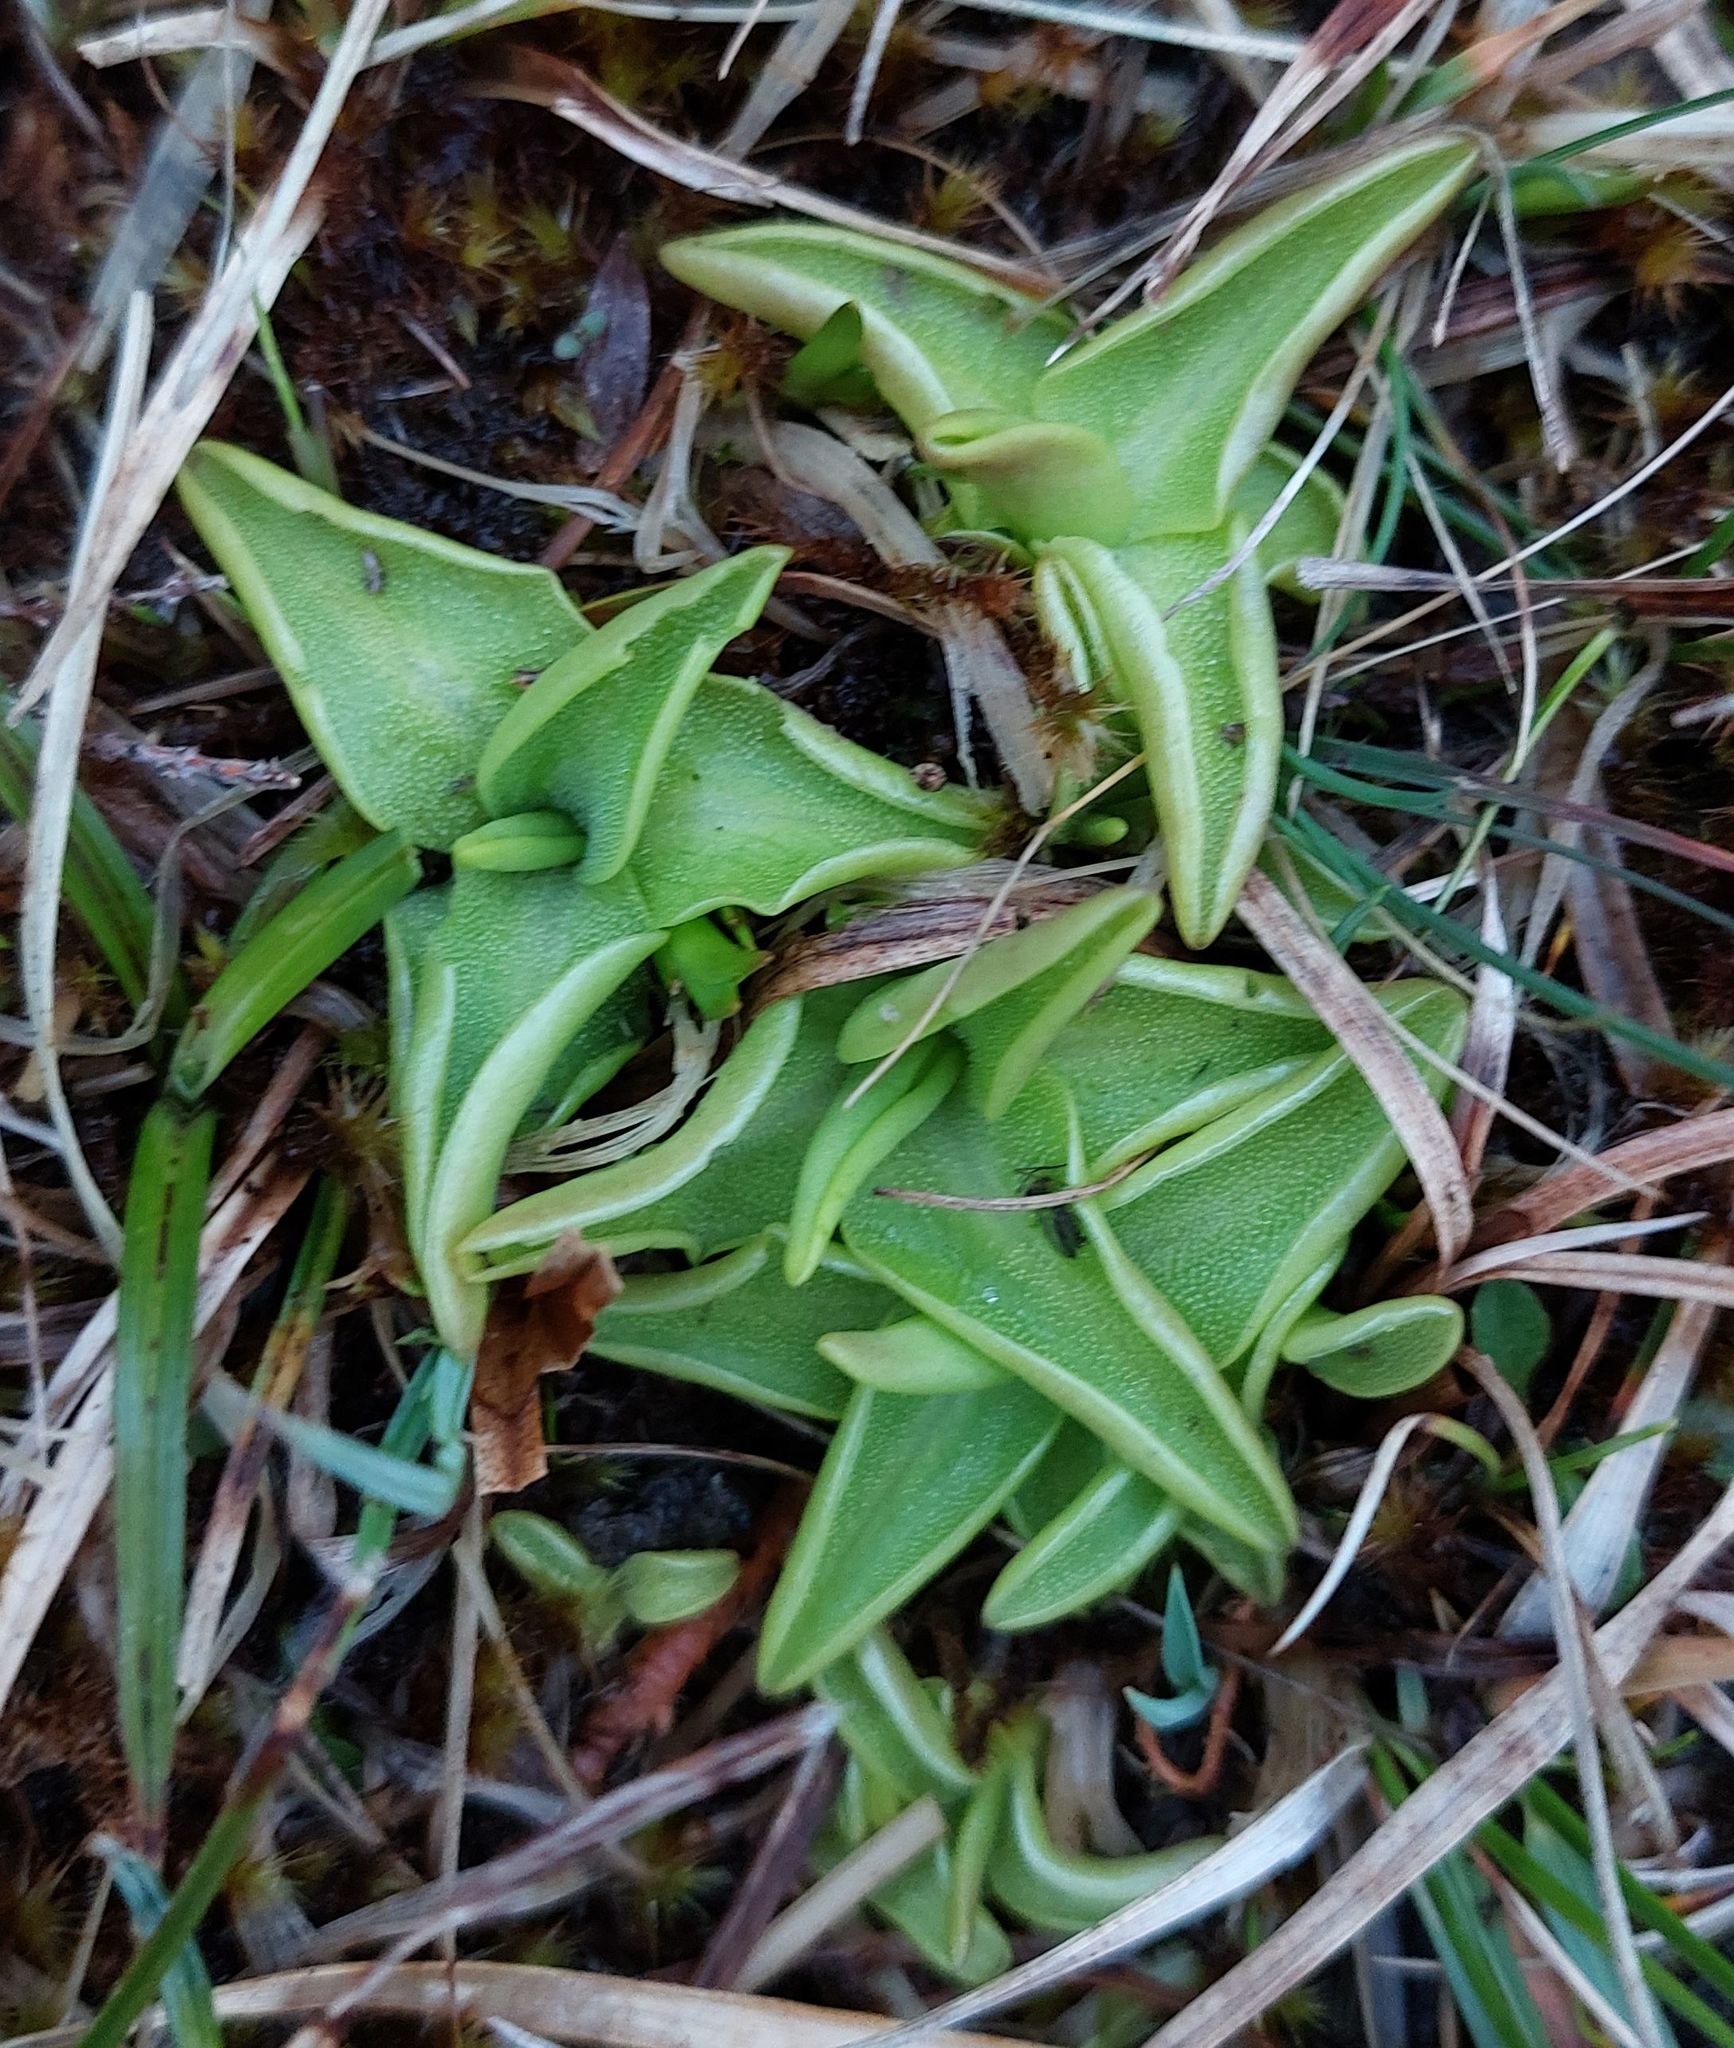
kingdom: Plantae
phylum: Tracheophyta
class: Magnoliopsida
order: Lamiales
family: Lentibulariaceae
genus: Pinguicula
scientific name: Pinguicula vulgaris
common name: Common butterwort
